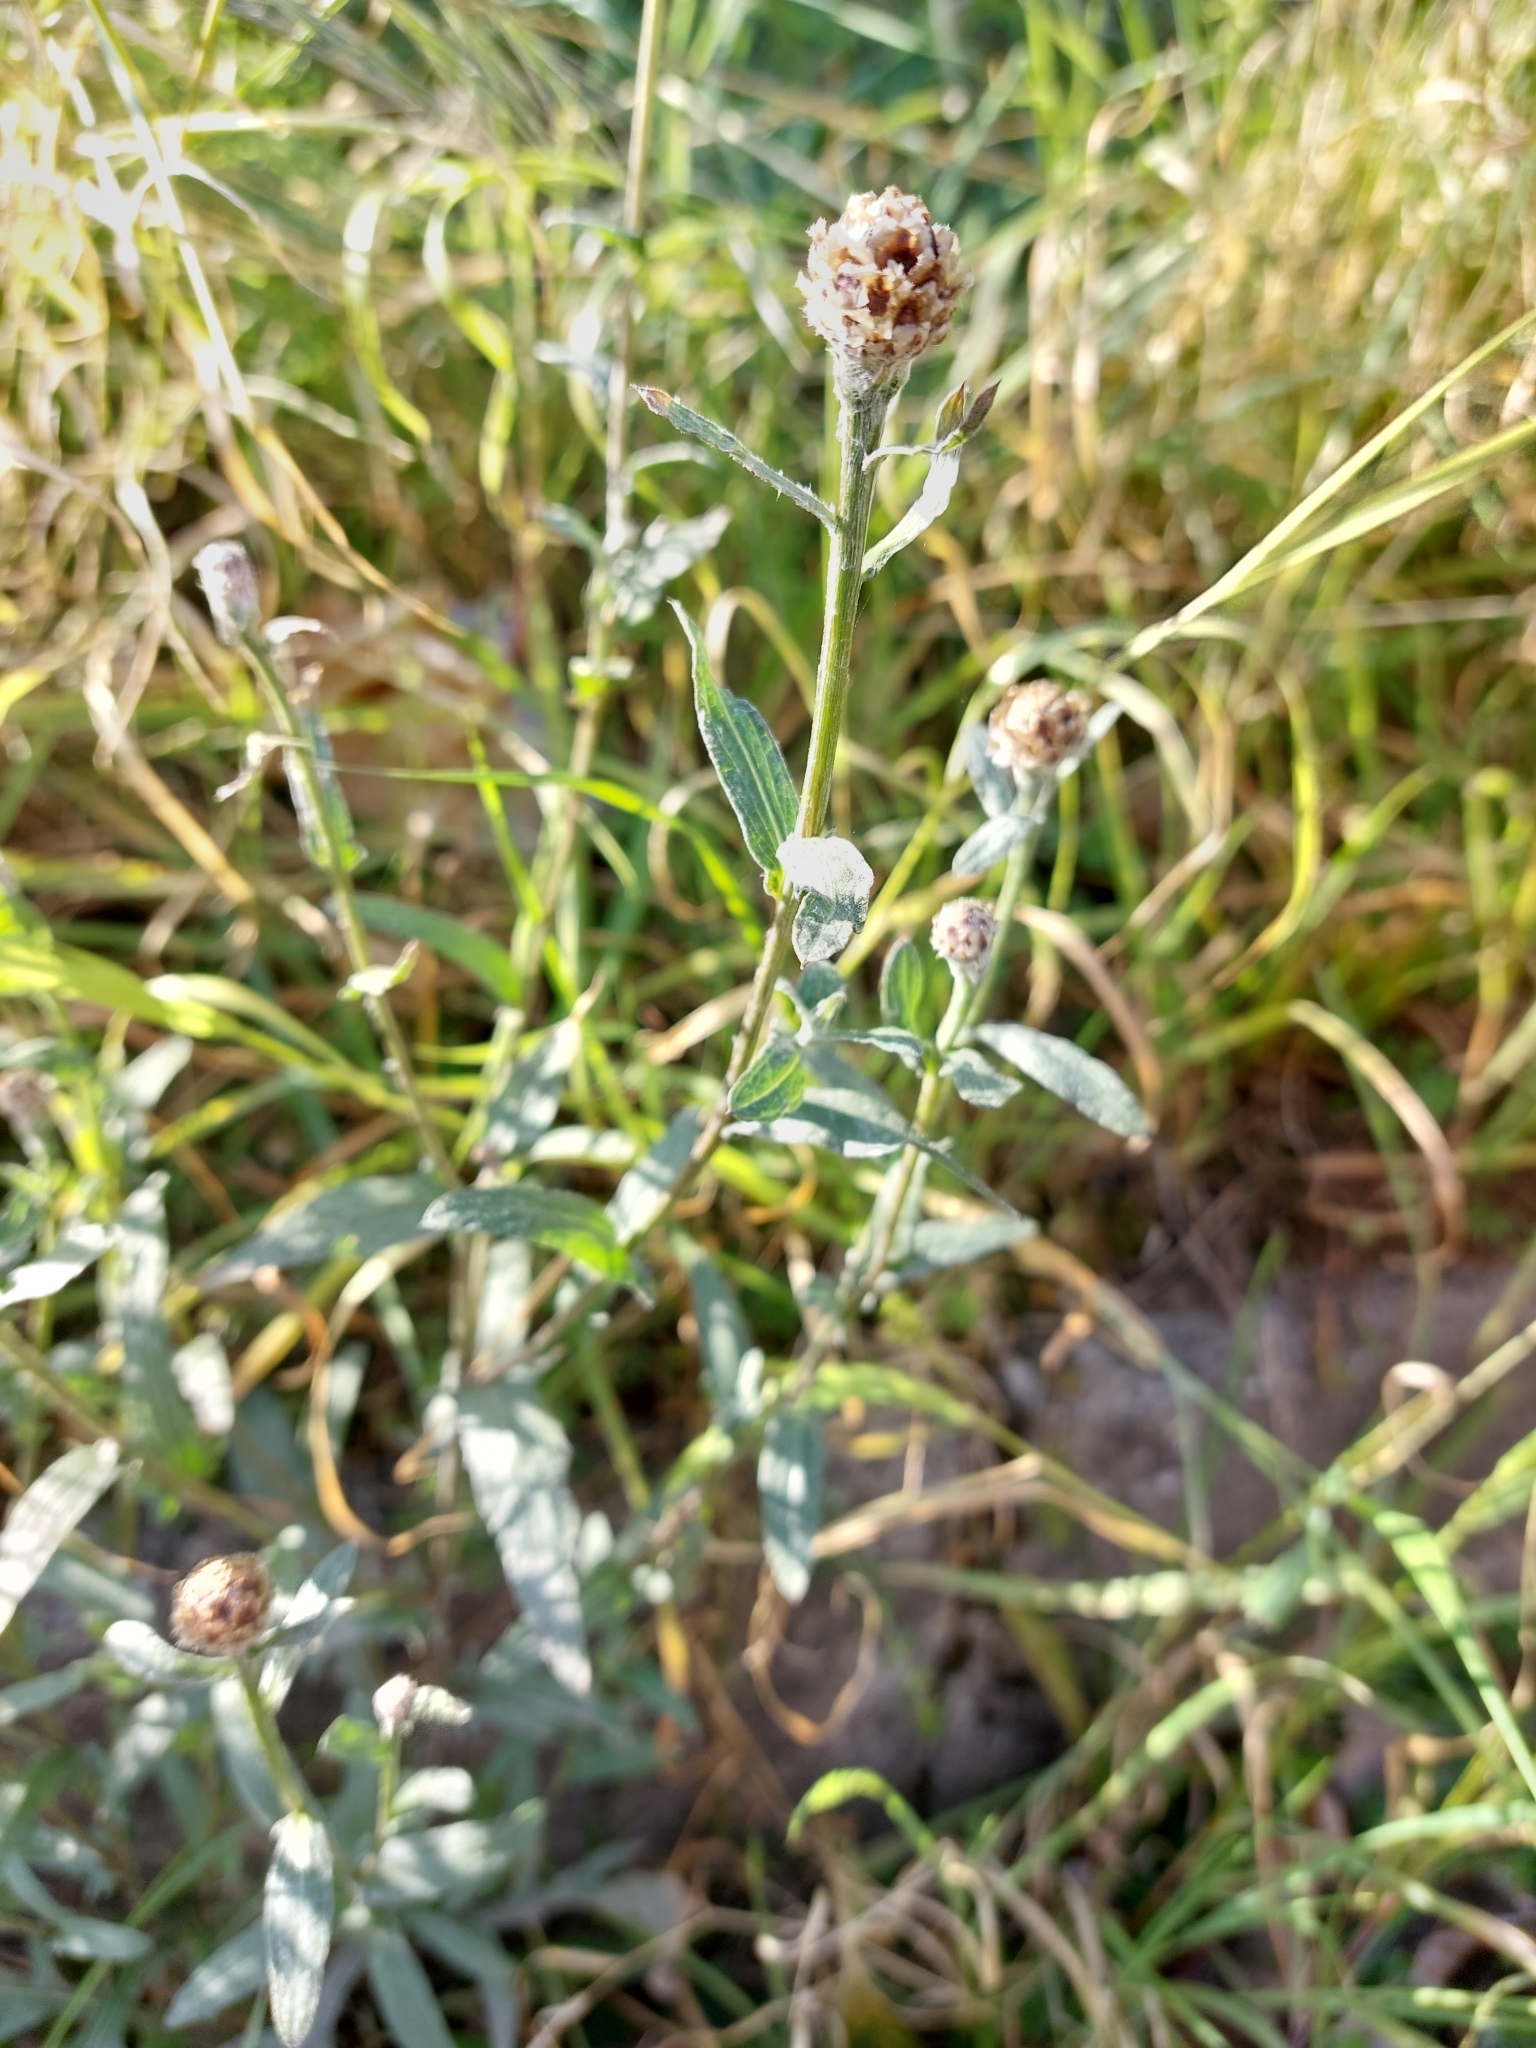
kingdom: Plantae
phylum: Tracheophyta
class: Magnoliopsida
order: Asterales
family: Asteraceae
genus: Centaurea
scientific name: Centaurea jacea
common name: Brown knapweed
